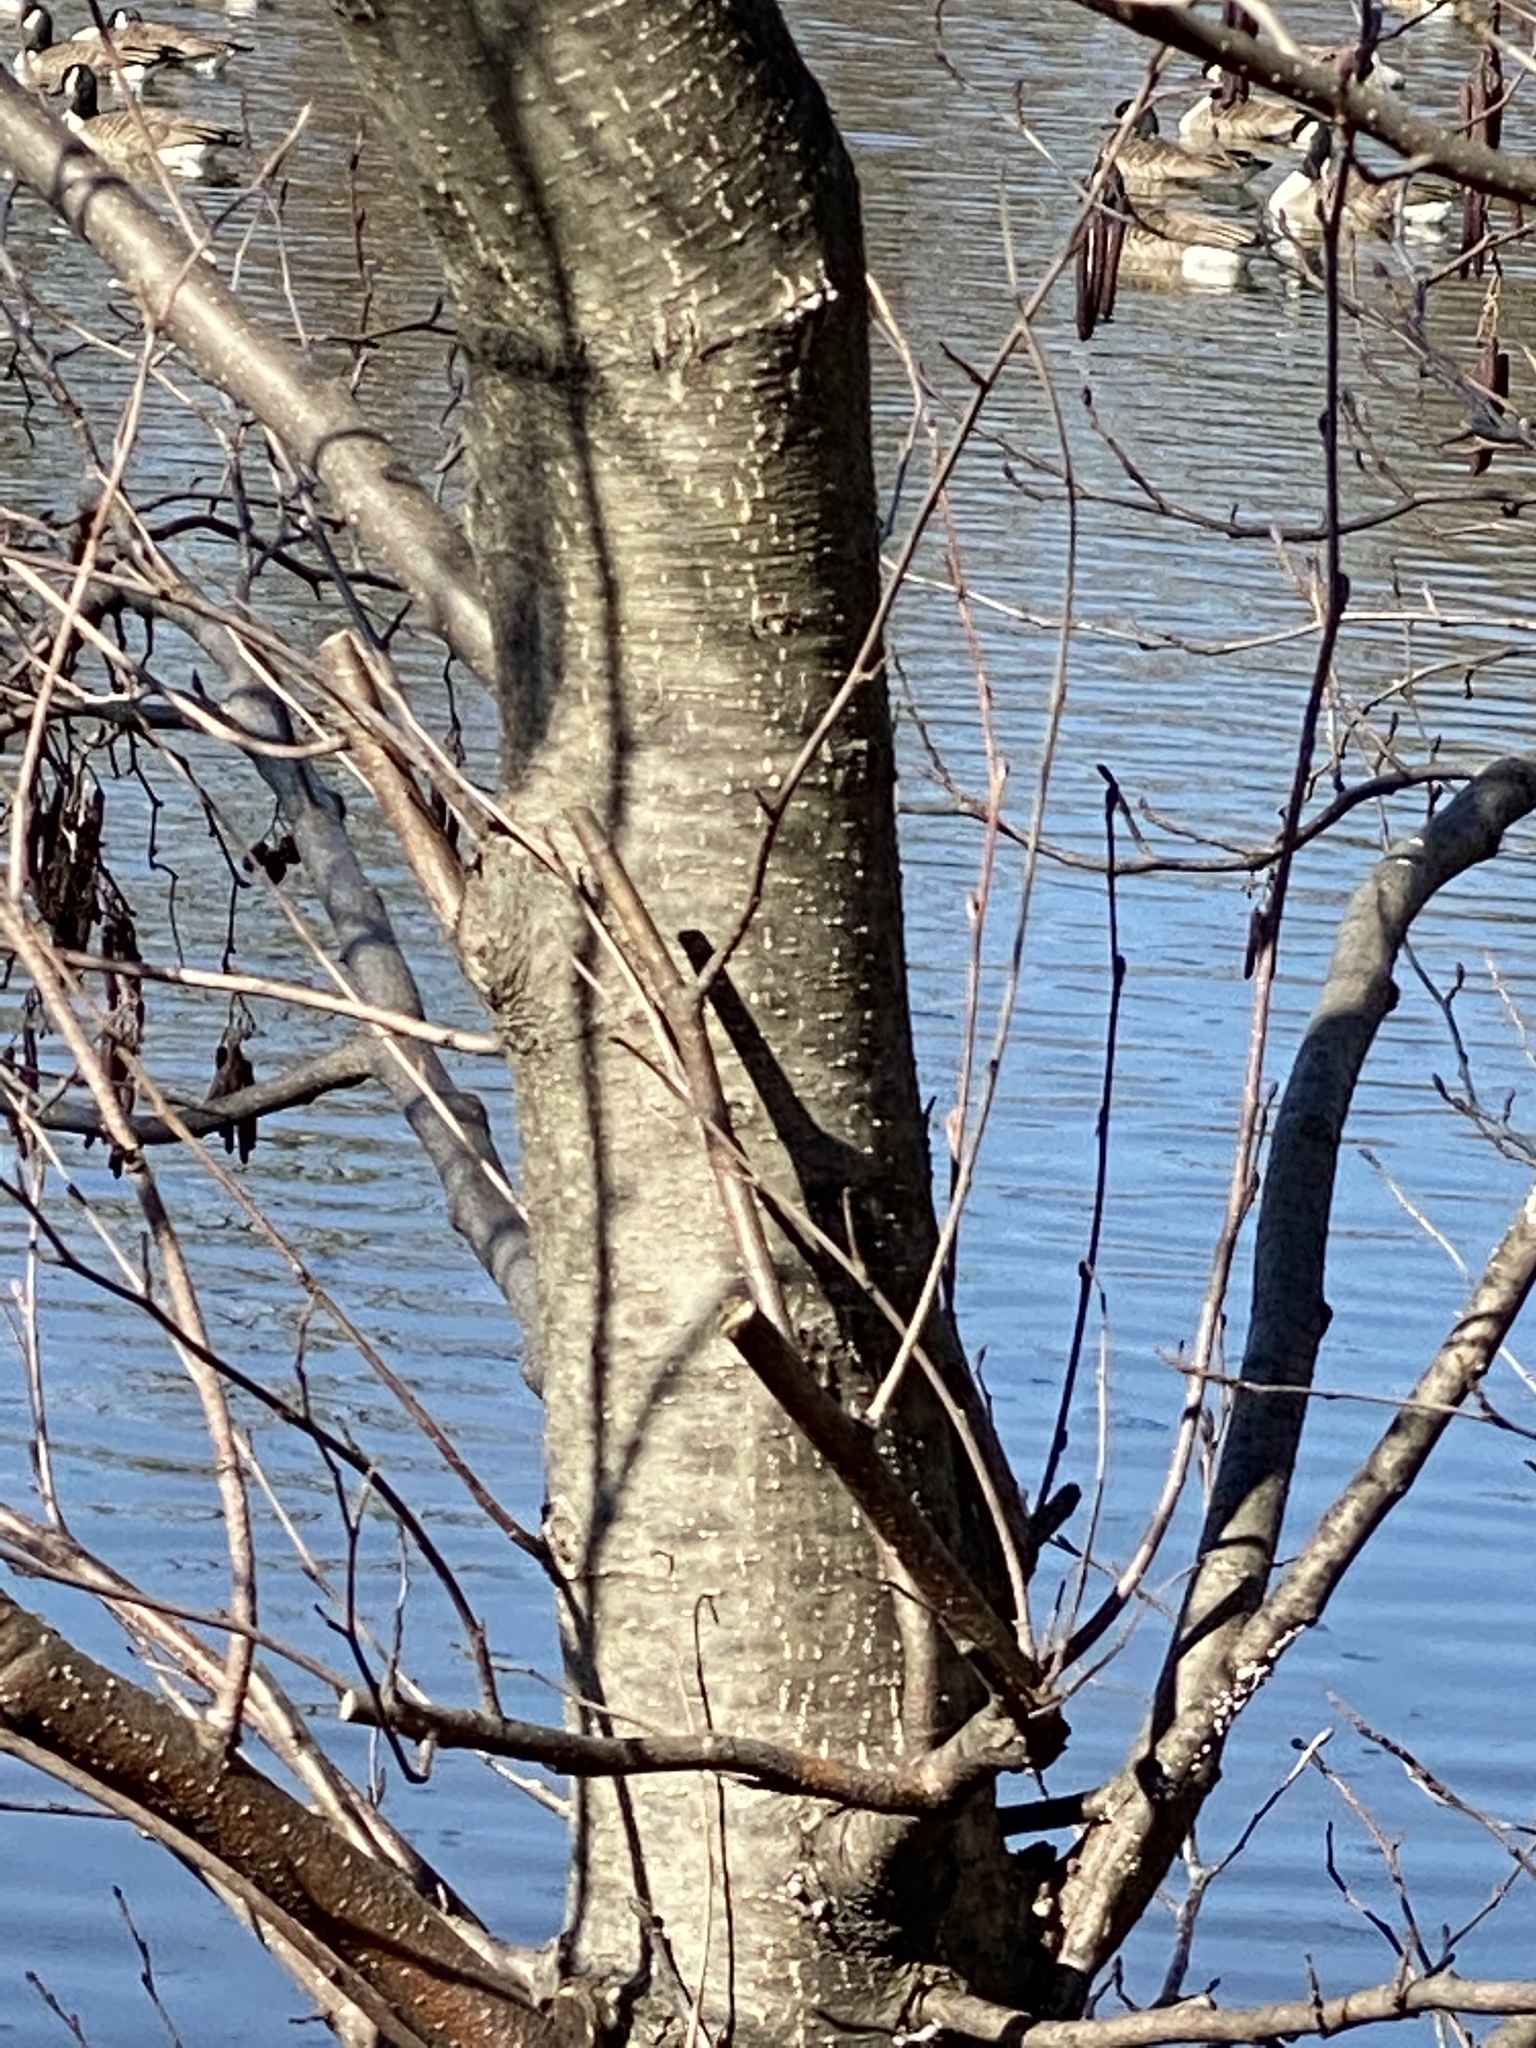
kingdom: Plantae
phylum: Tracheophyta
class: Magnoliopsida
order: Fagales
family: Betulaceae
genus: Alnus
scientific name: Alnus incana
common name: Grey alder
